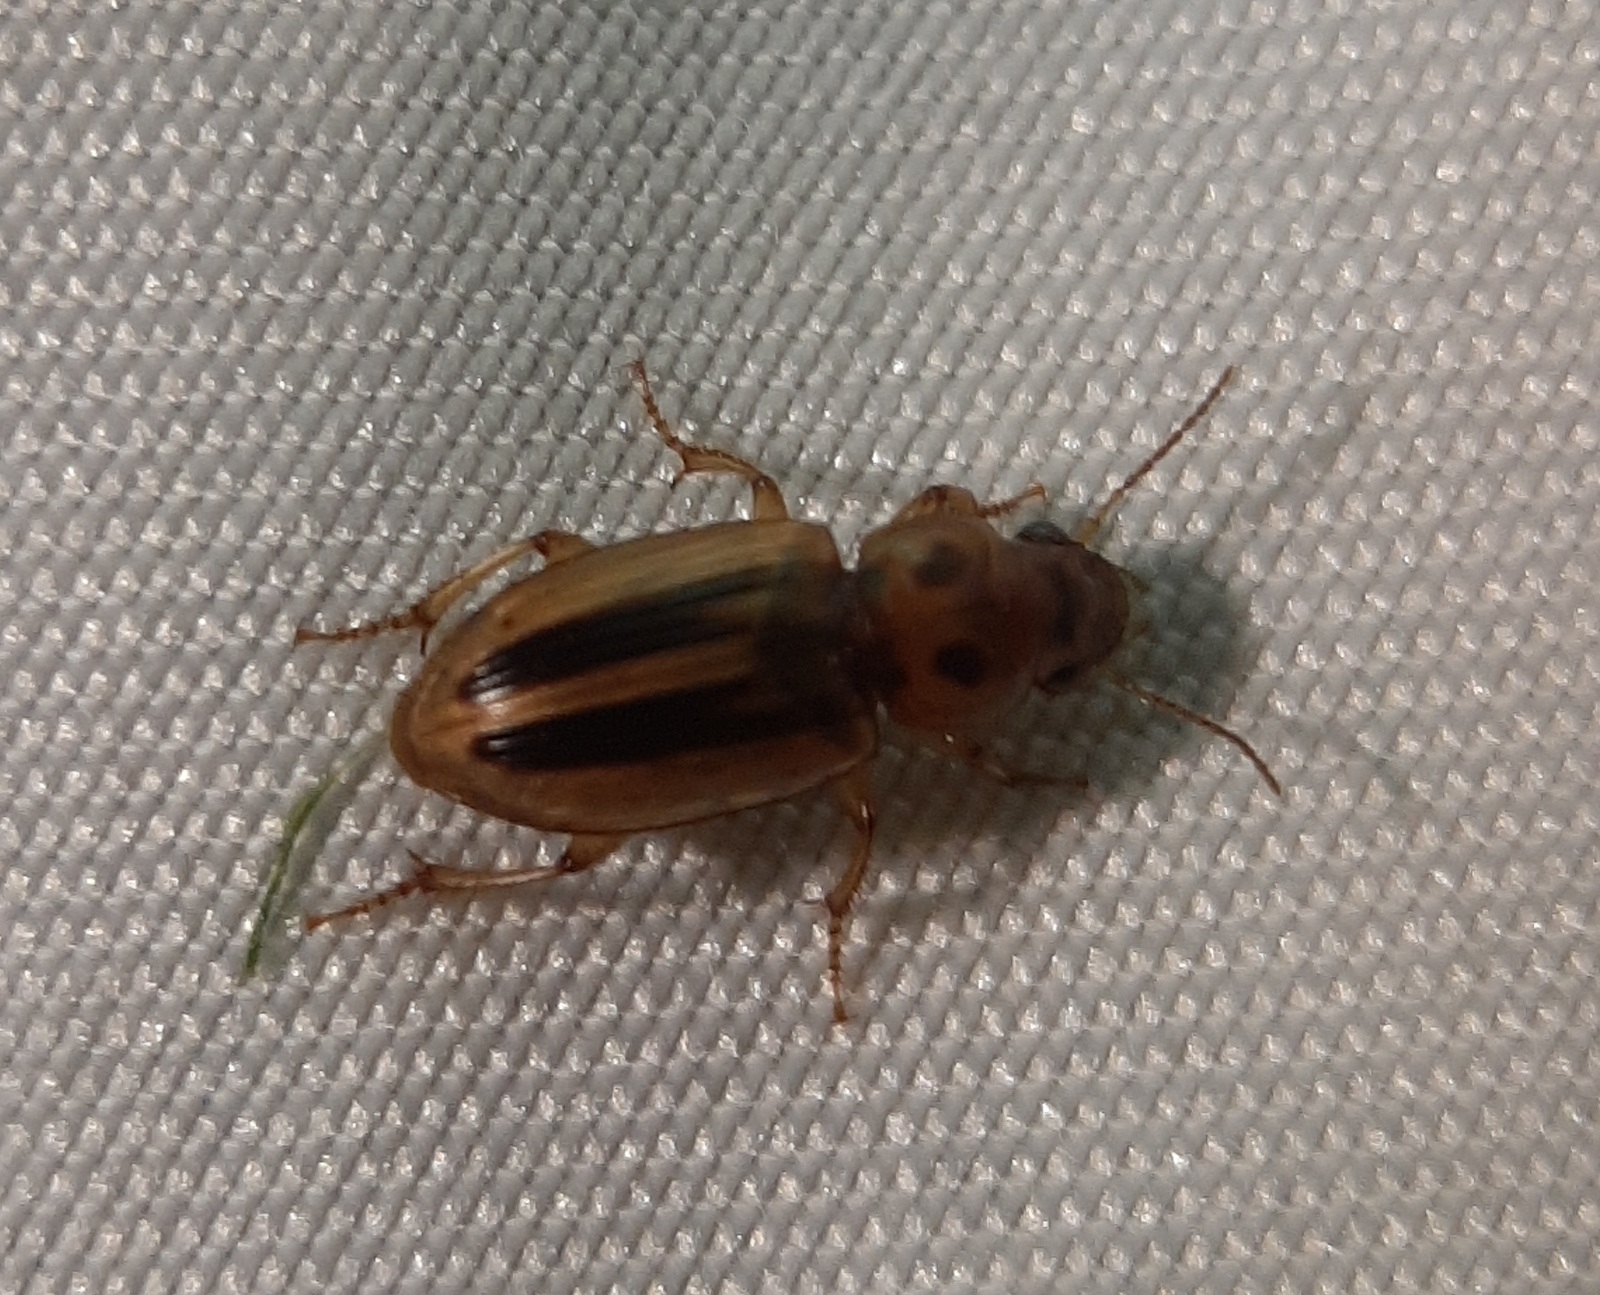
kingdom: Animalia
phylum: Arthropoda
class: Insecta
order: Coleoptera
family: Carabidae
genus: Stenolophus
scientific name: Stenolophus lineola
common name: Lined stenolophus
